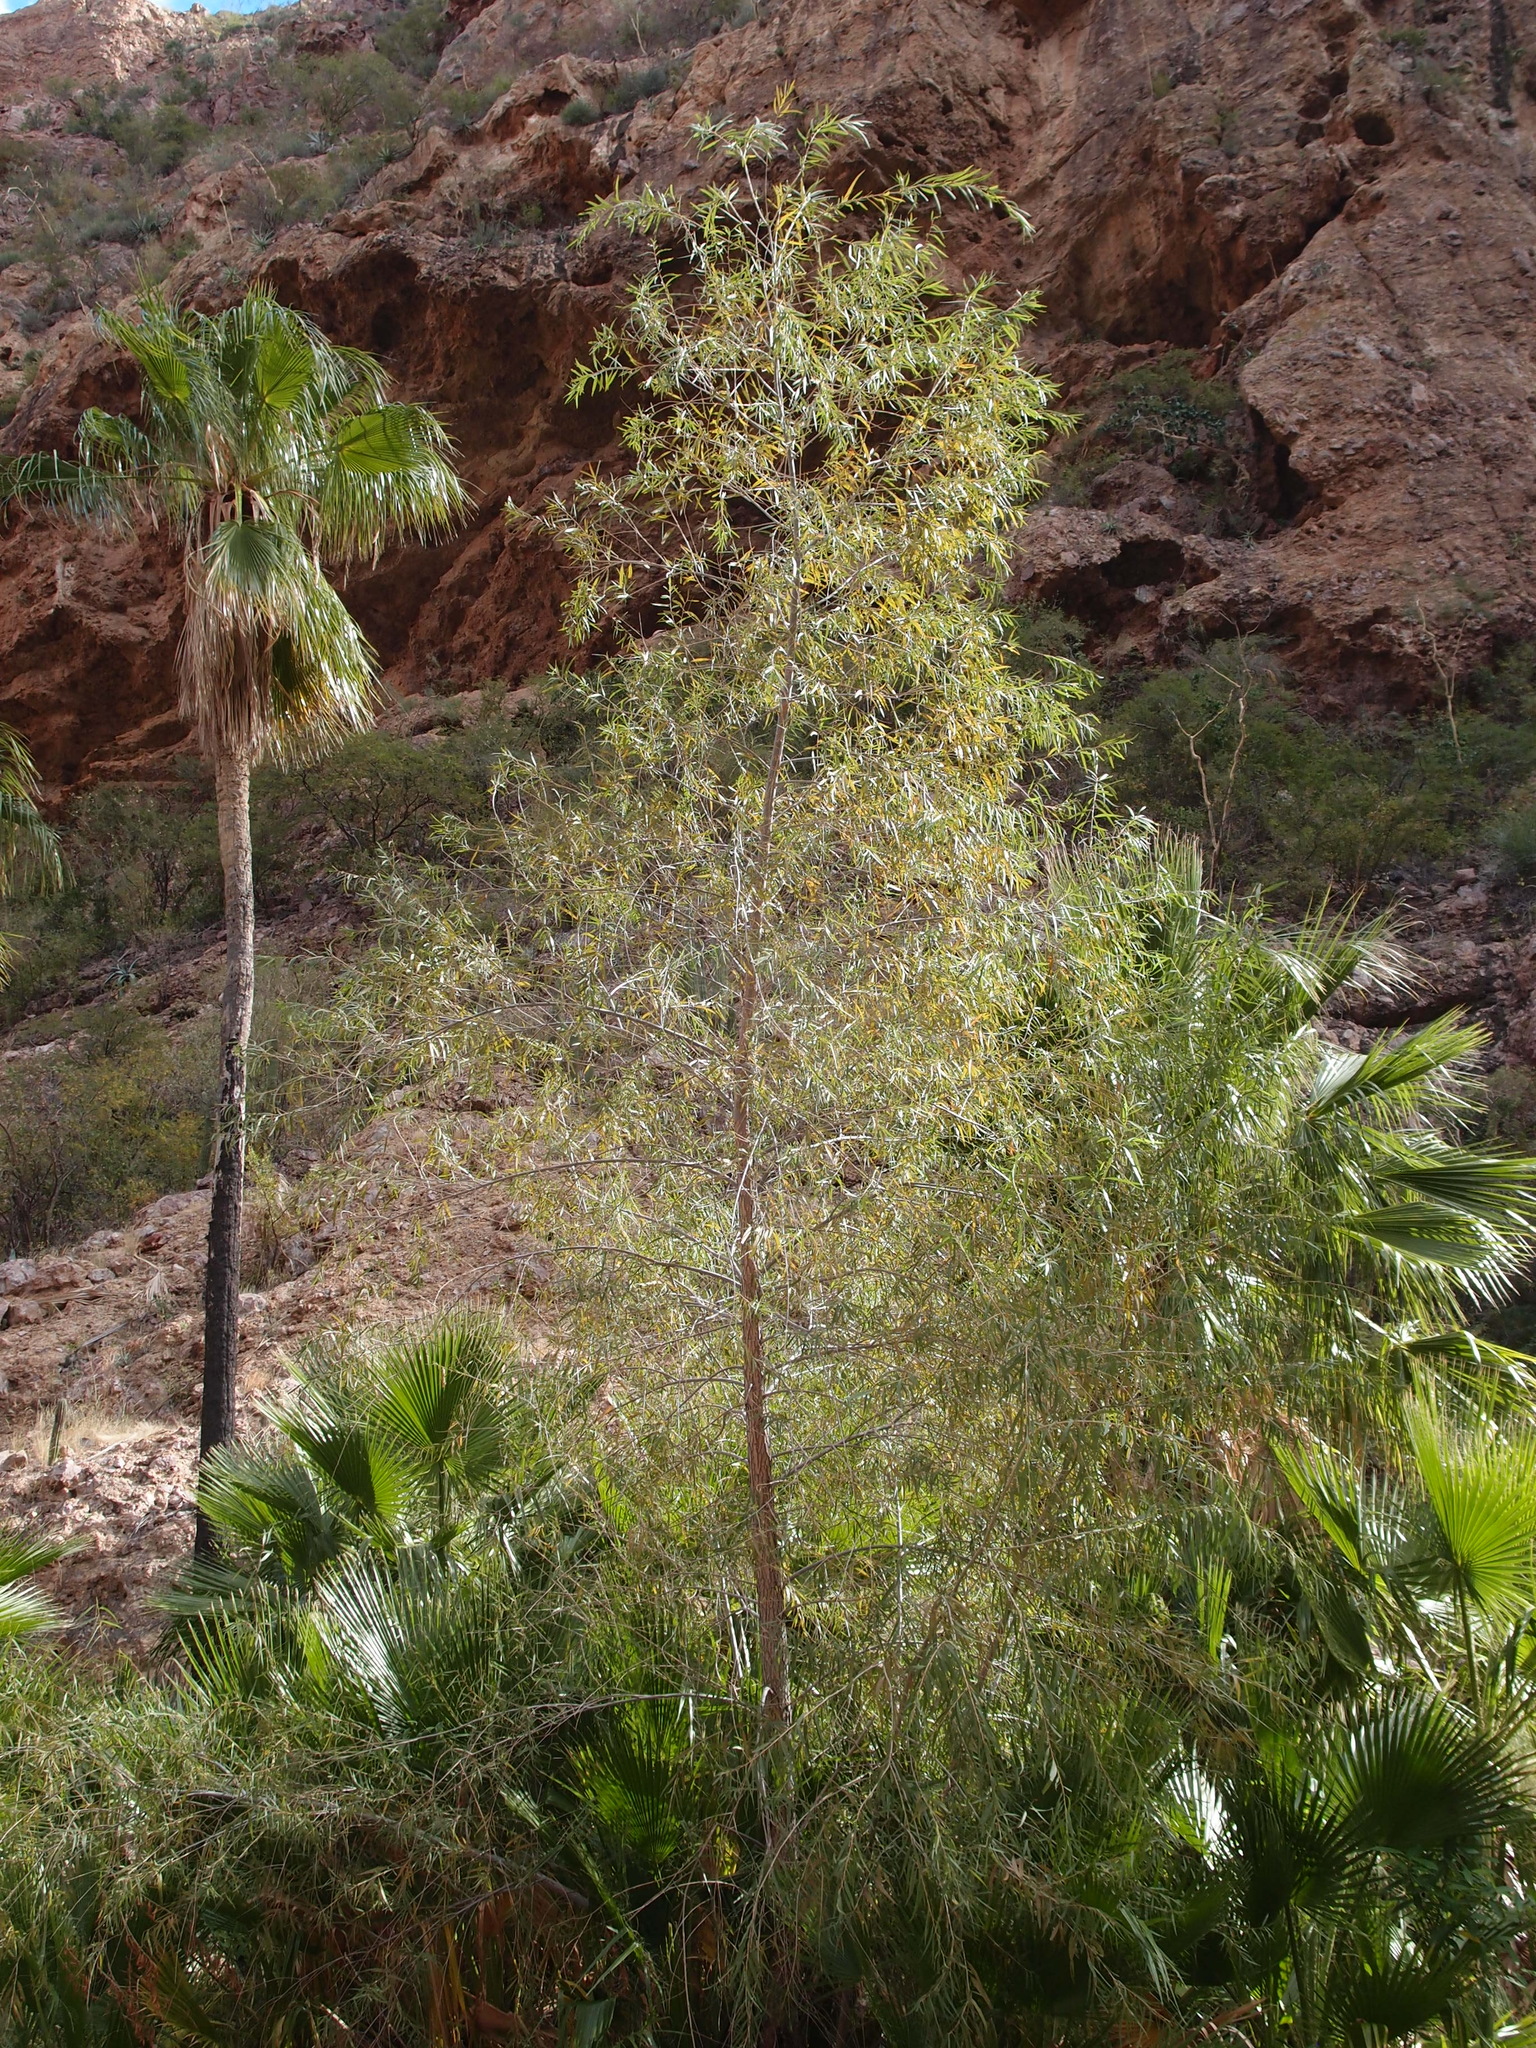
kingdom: Plantae
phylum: Tracheophyta
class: Magnoliopsida
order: Malpighiales
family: Salicaceae
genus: Salix
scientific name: Salix gooddingii
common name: Goodding's willow
